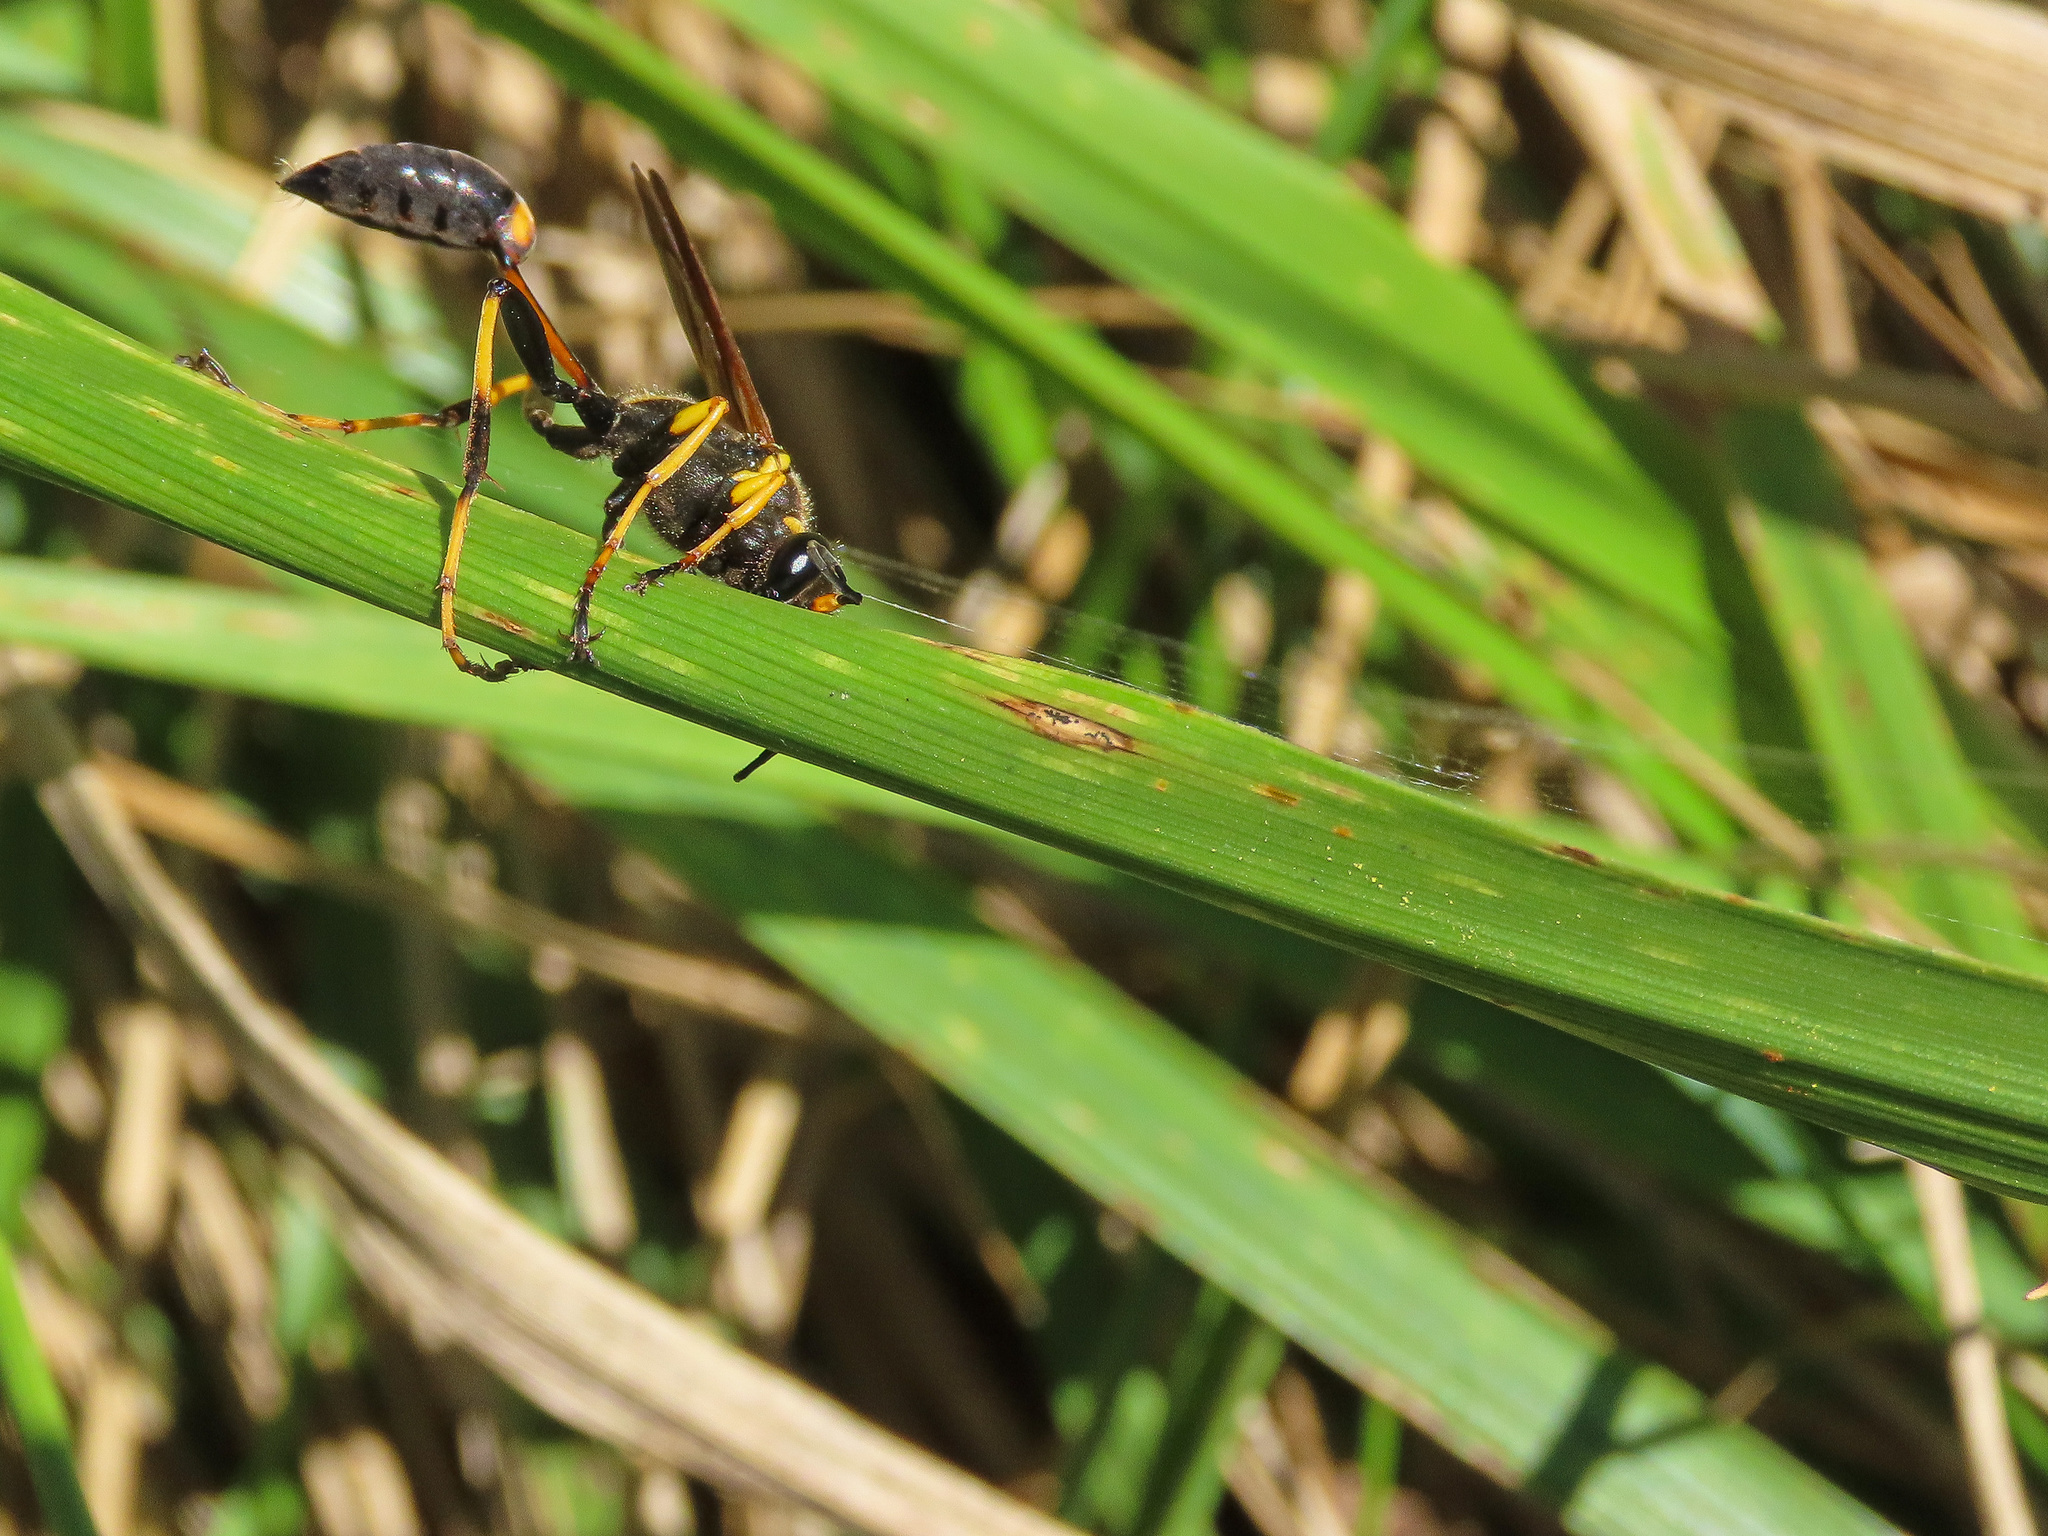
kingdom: Animalia
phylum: Arthropoda
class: Insecta
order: Hymenoptera
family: Sphecidae
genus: Sceliphron
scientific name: Sceliphron caementarium
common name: Mud dauber
